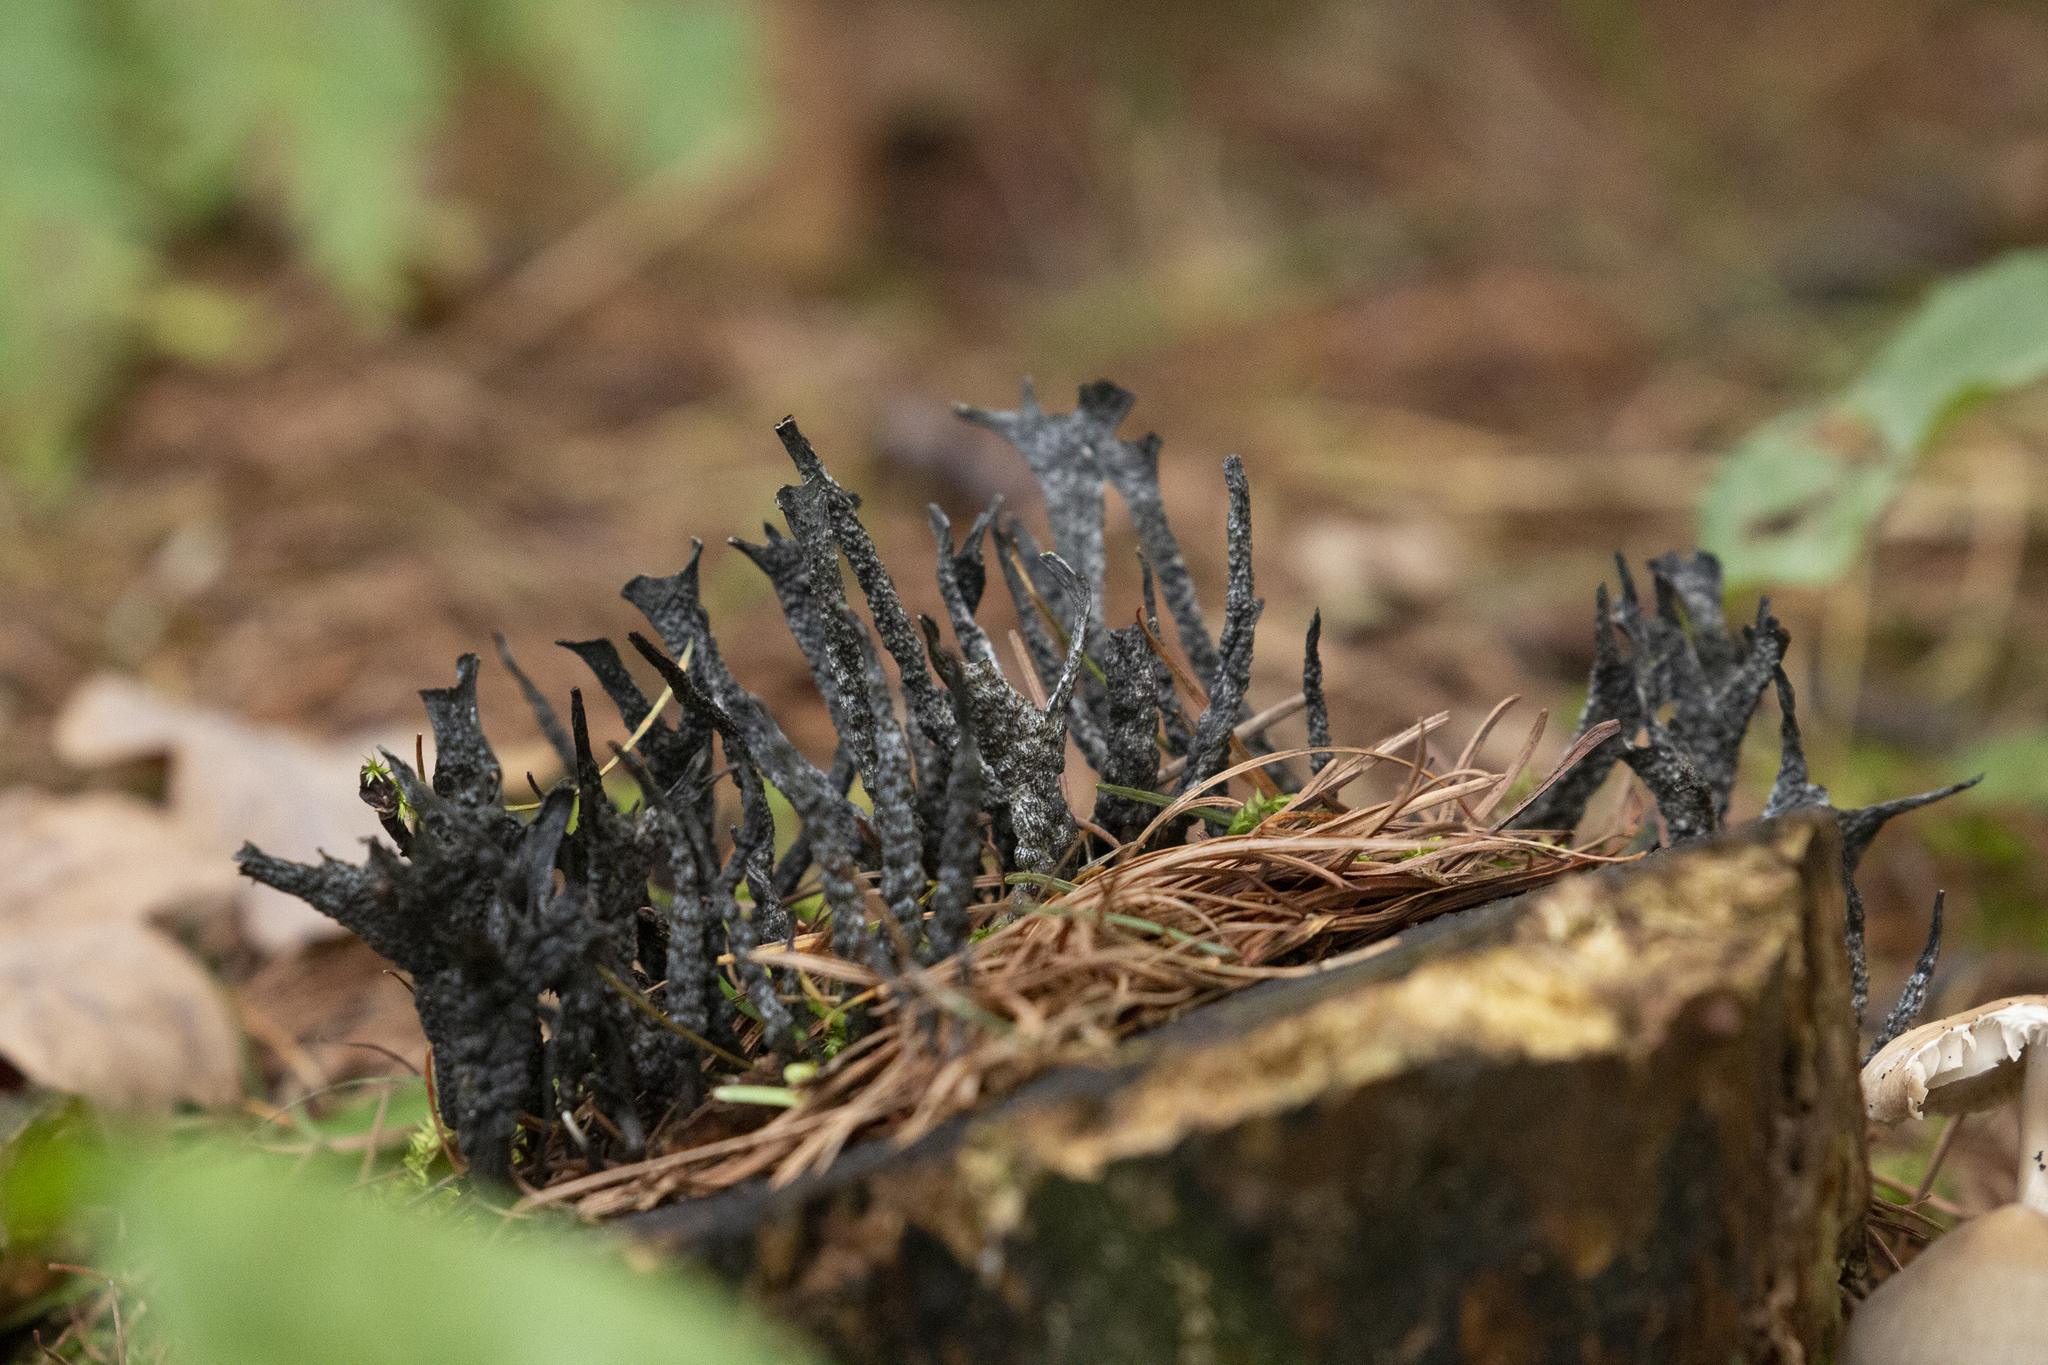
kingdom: Fungi
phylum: Ascomycota
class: Sordariomycetes
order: Xylariales
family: Xylariaceae
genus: Xylaria
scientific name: Xylaria hypoxylon
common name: Candle-snuff fungus
